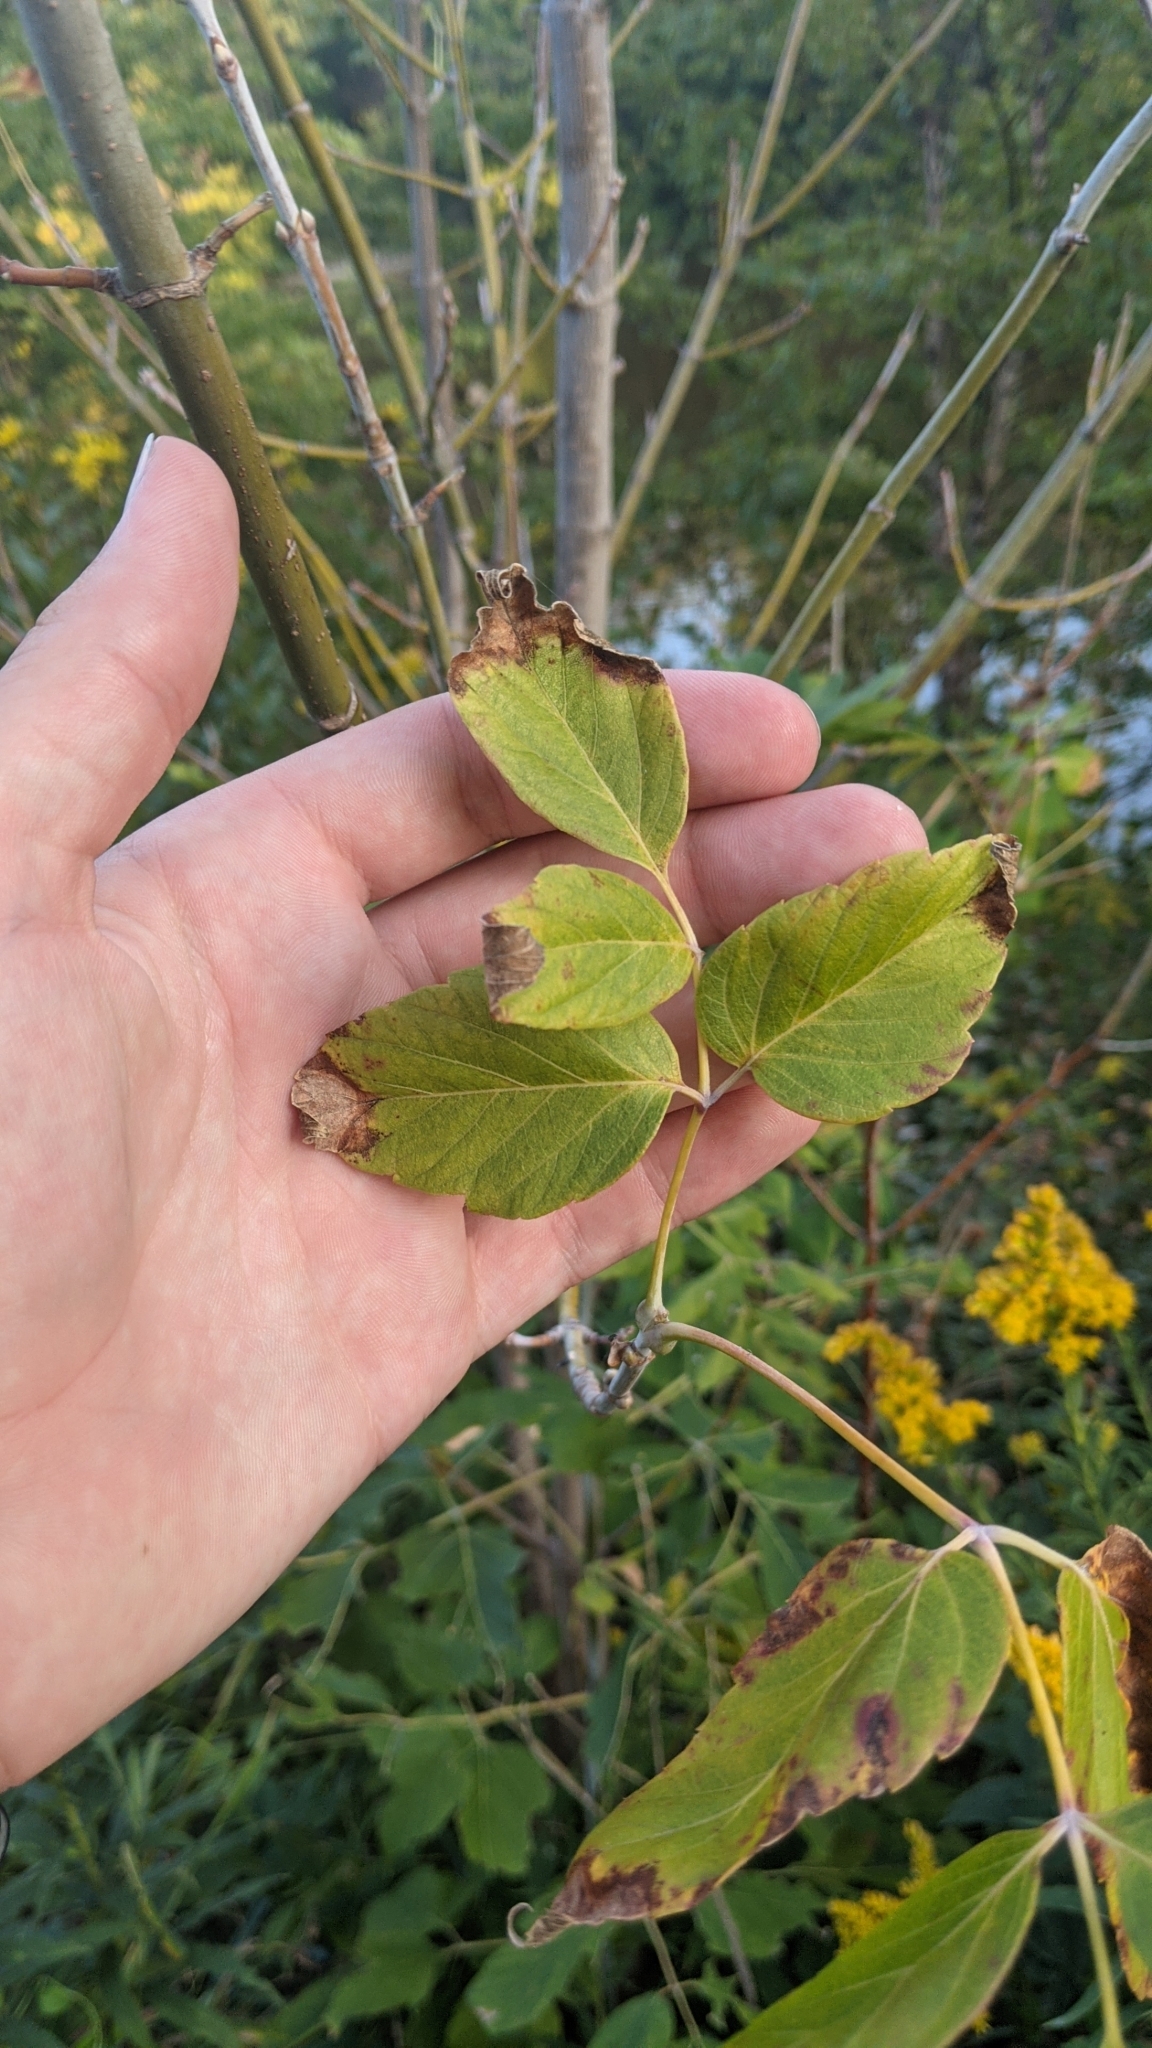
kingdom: Plantae
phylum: Tracheophyta
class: Magnoliopsida
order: Sapindales
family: Sapindaceae
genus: Acer
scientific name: Acer negundo
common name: Ashleaf maple
